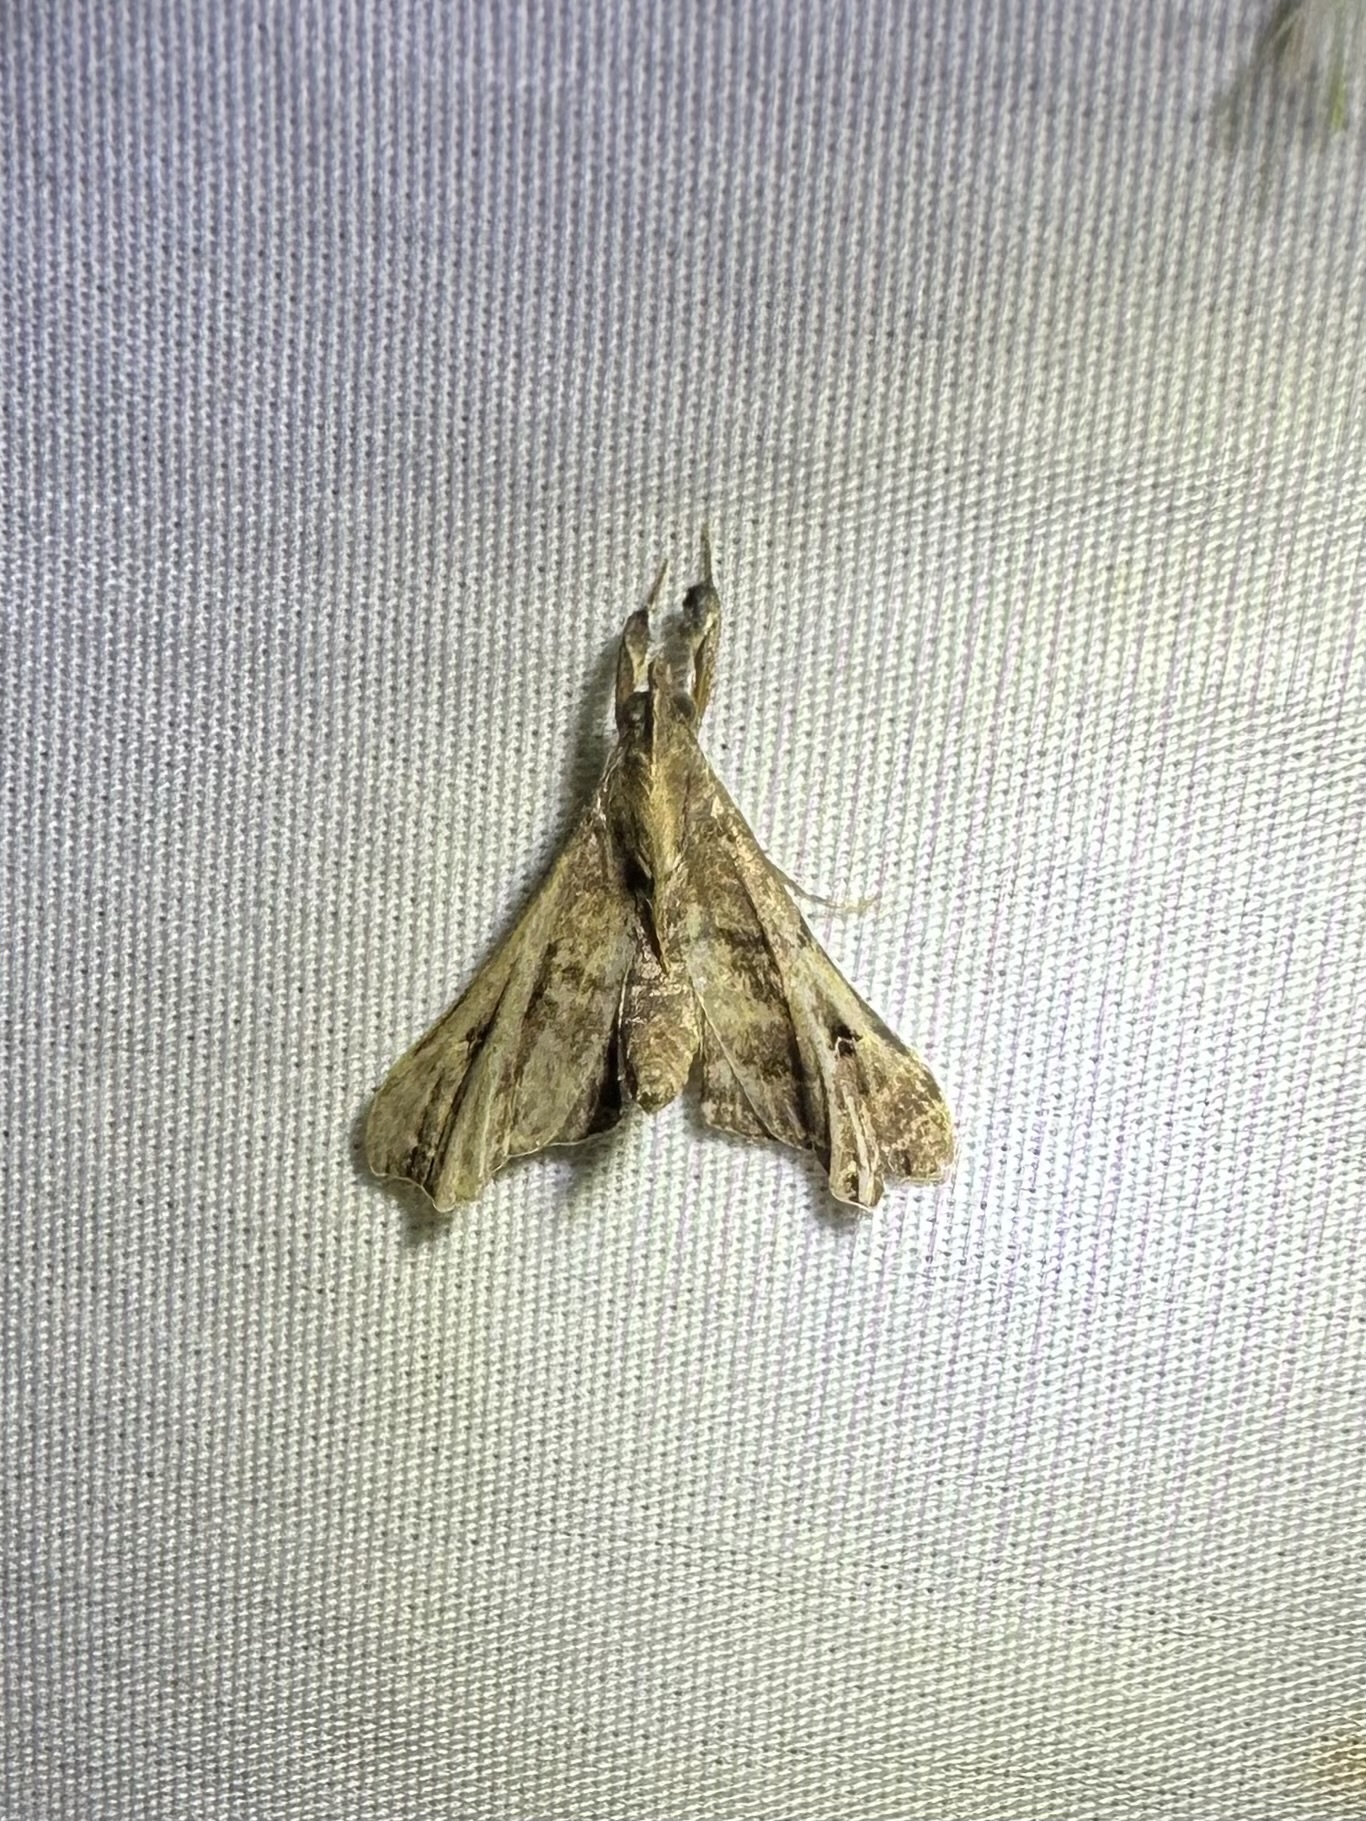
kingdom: Animalia
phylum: Arthropoda
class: Insecta
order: Lepidoptera
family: Erebidae
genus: Palthis
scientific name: Palthis asopialis
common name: Faint-spotted palthis moth
